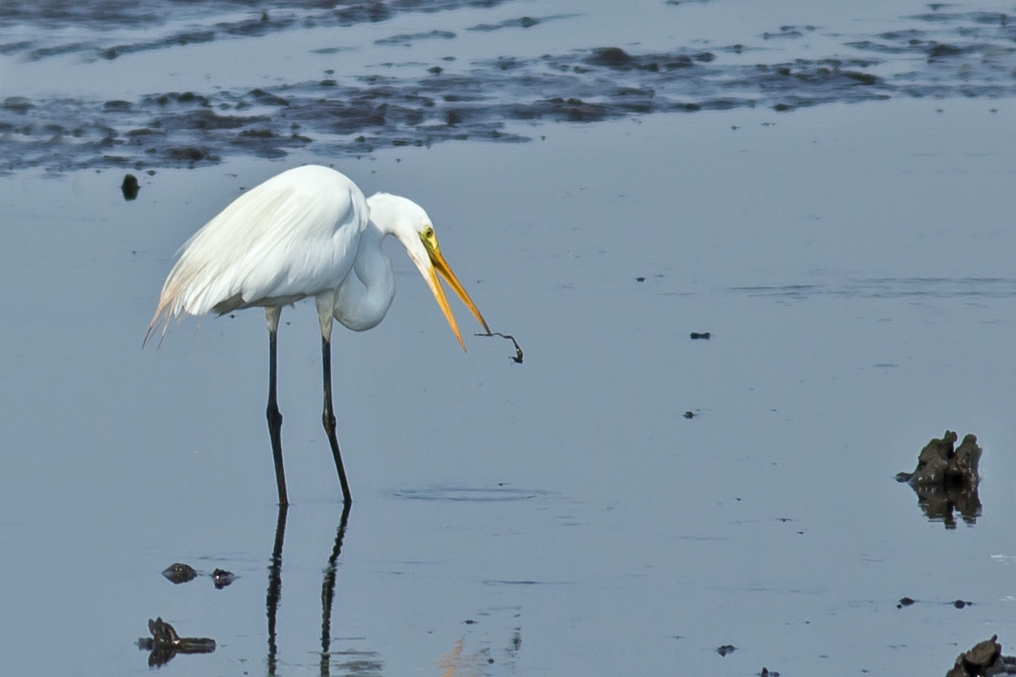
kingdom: Animalia
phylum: Chordata
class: Aves
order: Pelecaniformes
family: Ardeidae
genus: Ardea
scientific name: Ardea alba
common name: Great egret
